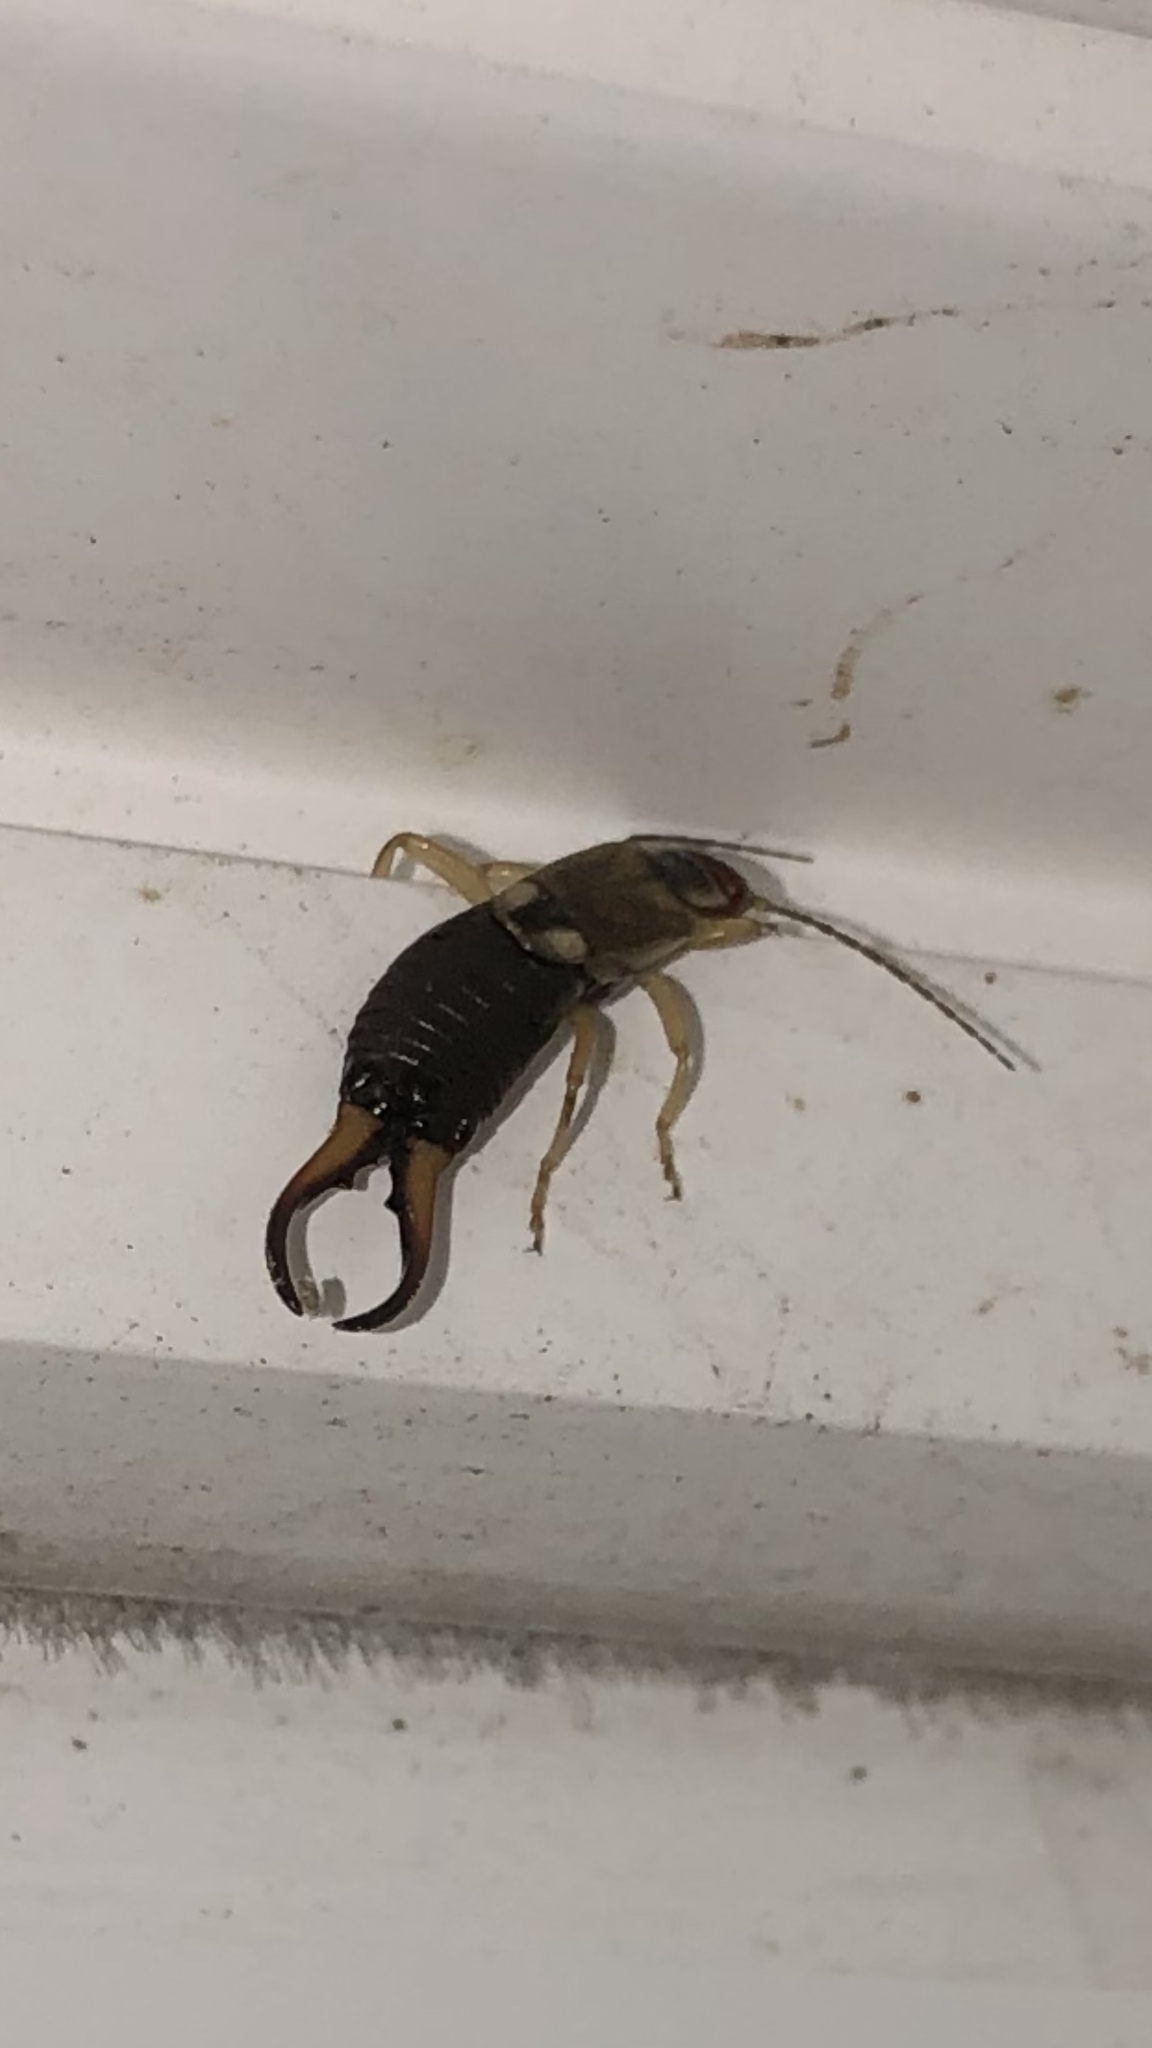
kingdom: Animalia
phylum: Arthropoda
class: Insecta
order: Dermaptera
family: Forficulidae
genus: Forficula
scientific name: Forficula
